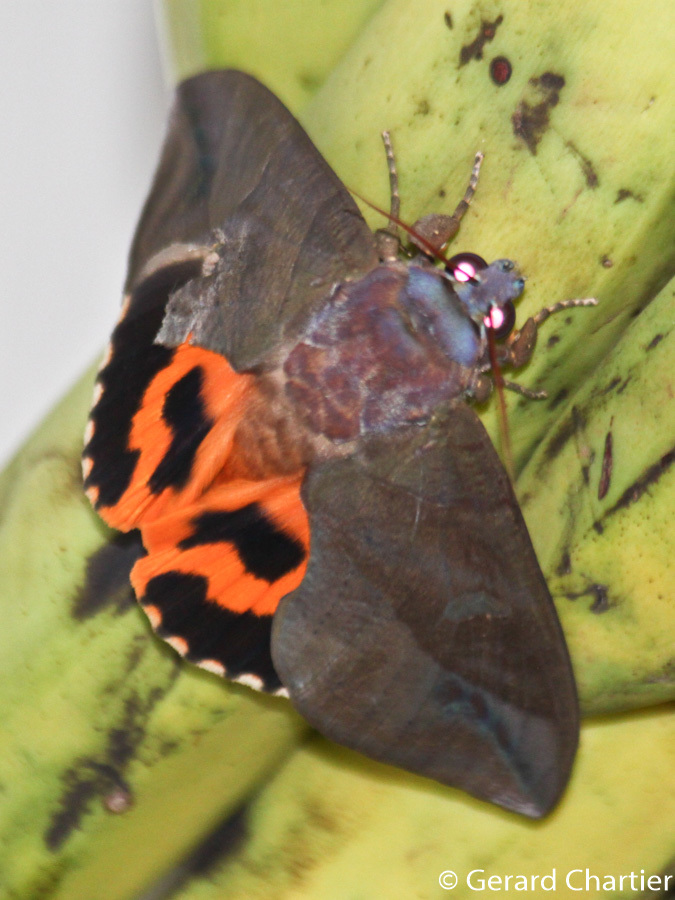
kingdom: Animalia
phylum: Arthropoda
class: Insecta
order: Lepidoptera
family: Erebidae
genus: Eudocima
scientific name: Eudocima homaena
